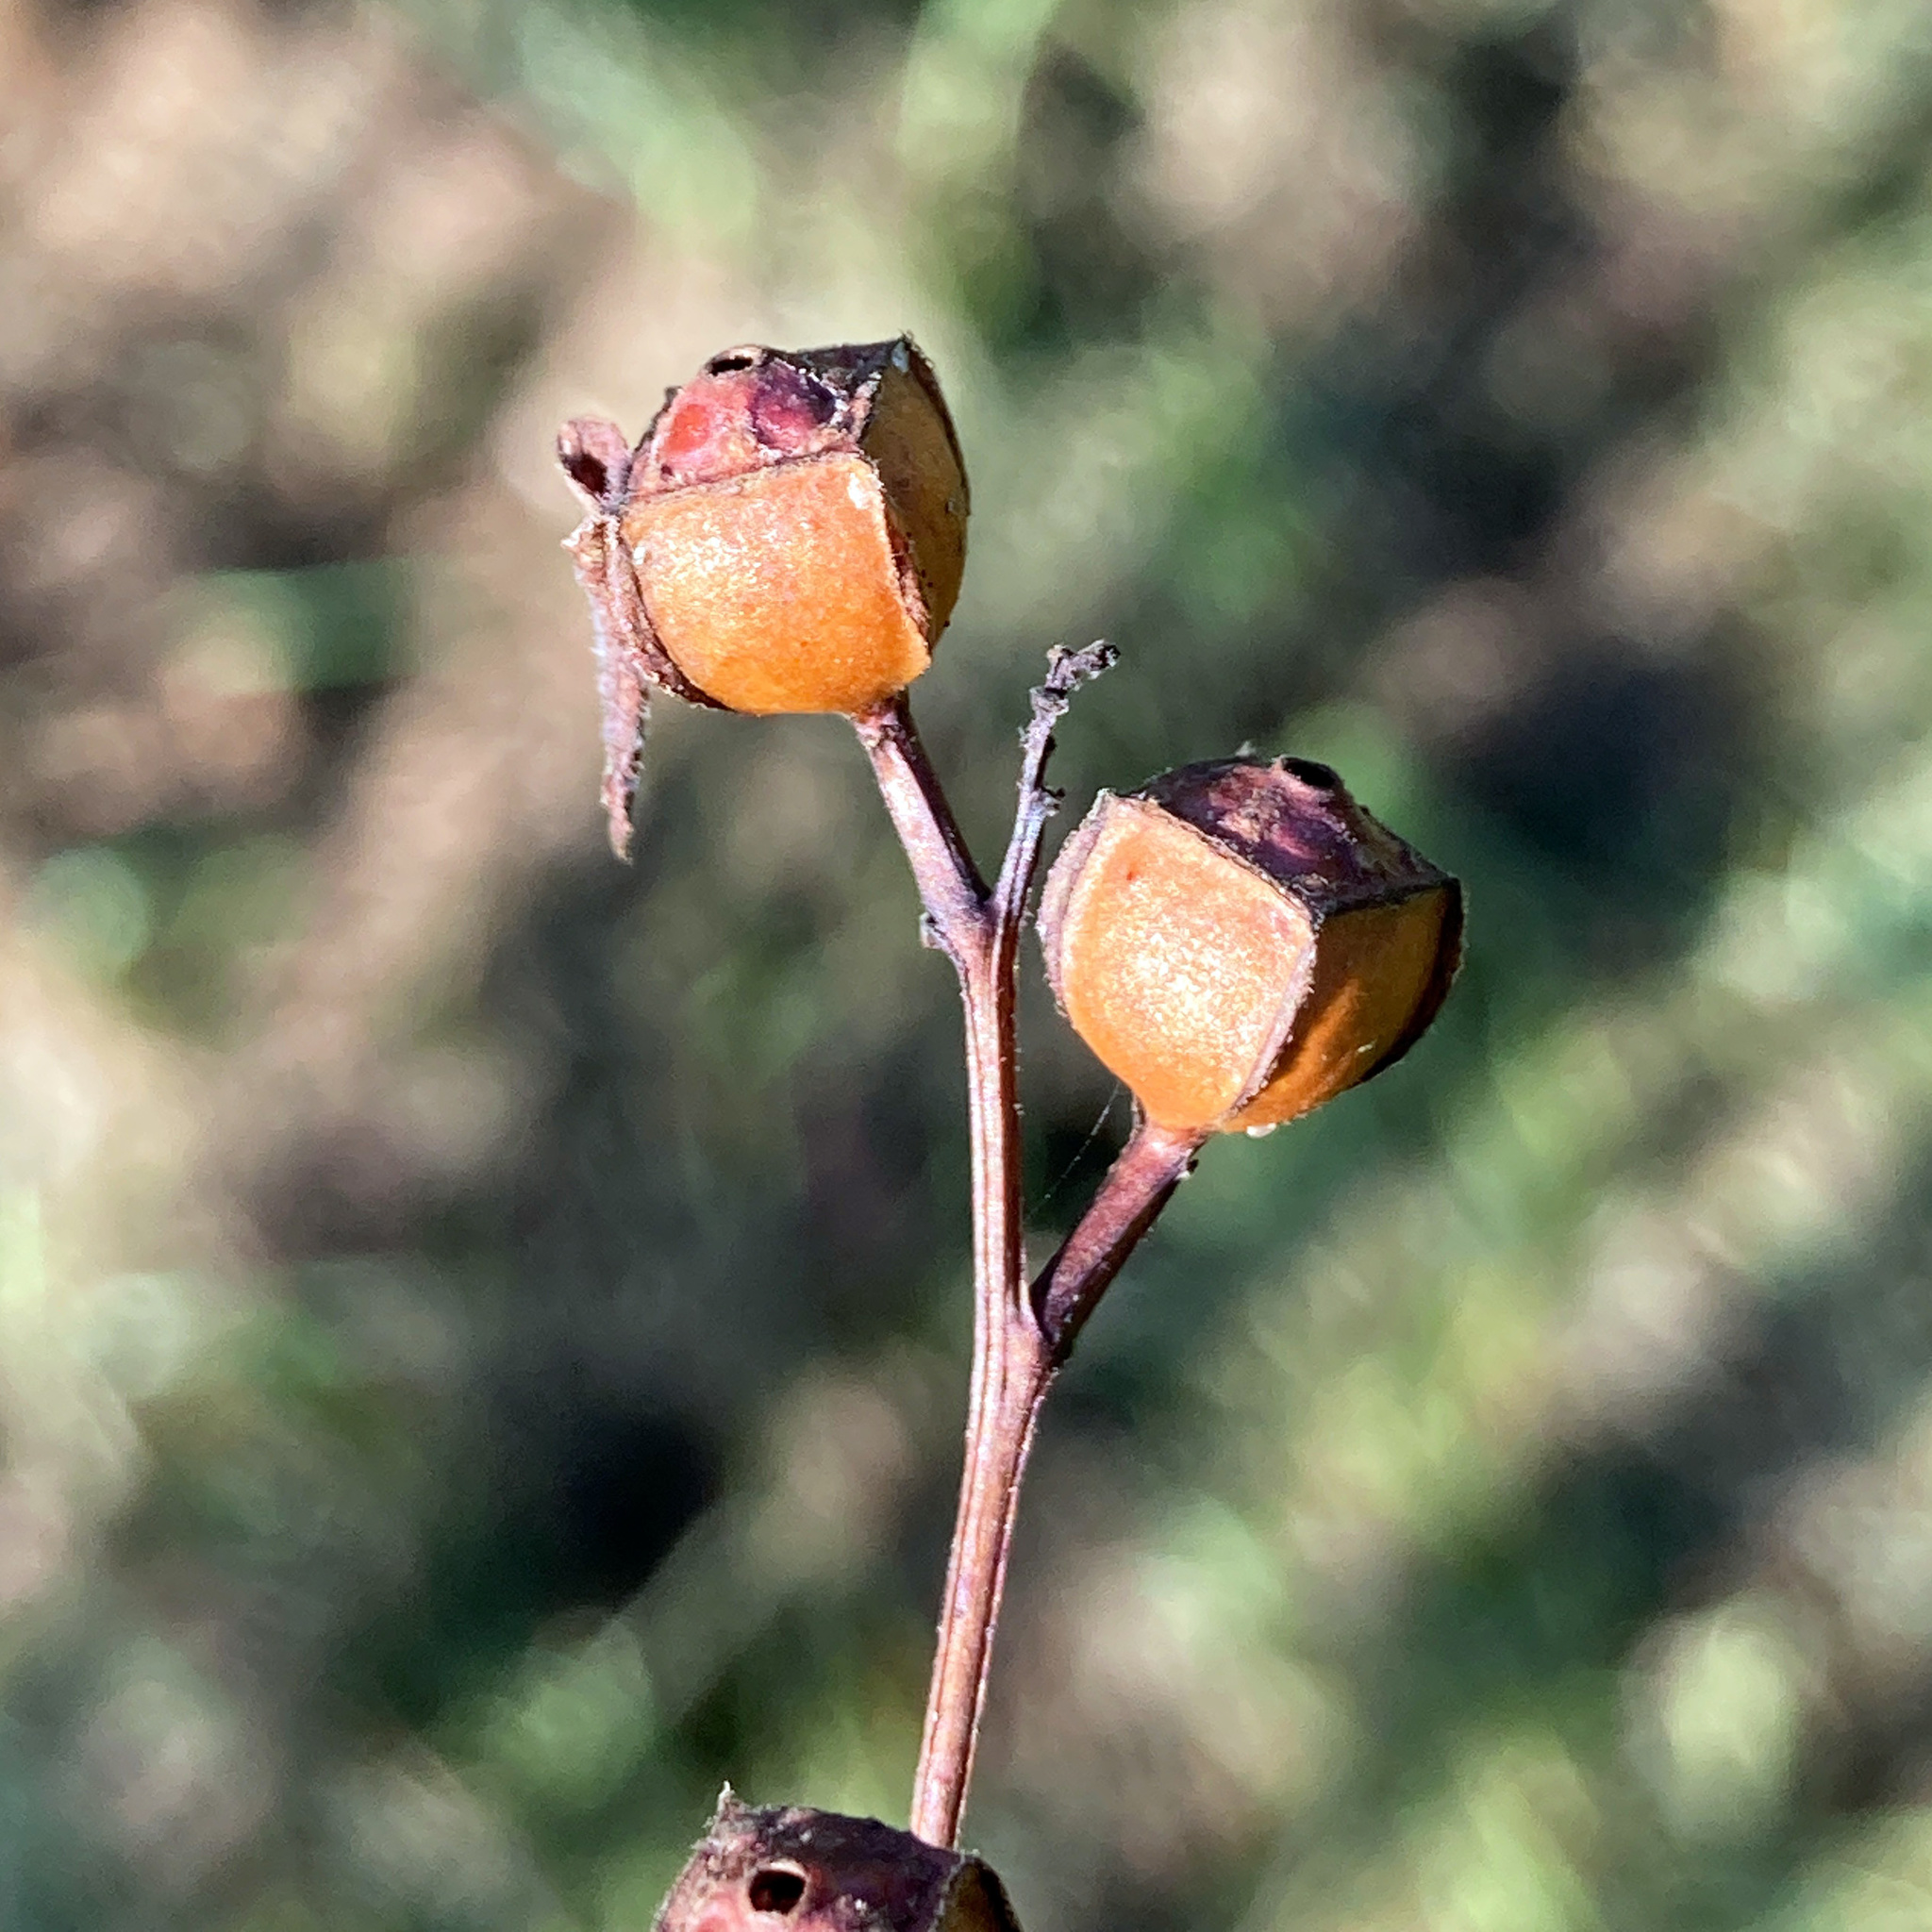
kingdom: Plantae
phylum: Tracheophyta
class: Magnoliopsida
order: Myrtales
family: Onagraceae
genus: Ludwigia
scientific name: Ludwigia alternifolia
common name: Rattlebox
